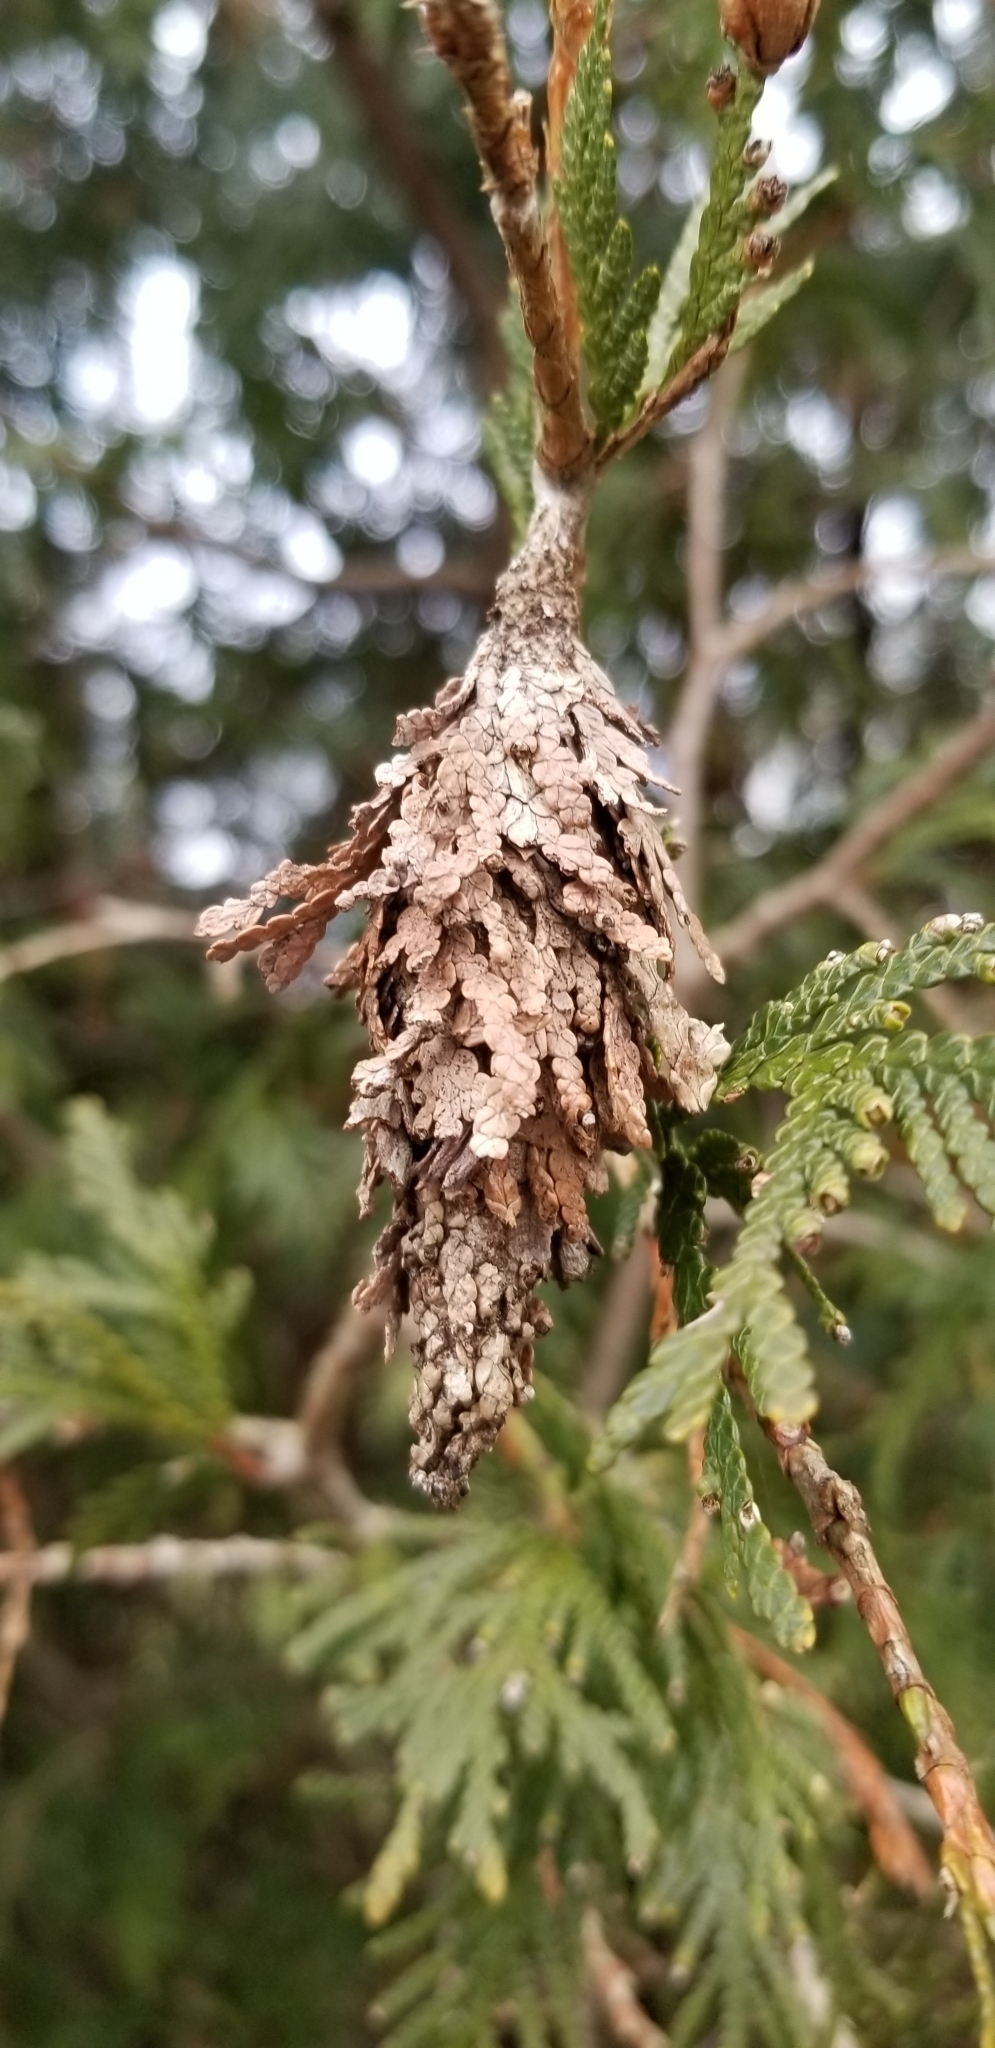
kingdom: Animalia
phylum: Arthropoda
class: Insecta
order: Lepidoptera
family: Psychidae
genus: Thyridopteryx
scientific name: Thyridopteryx ephemeraeformis
